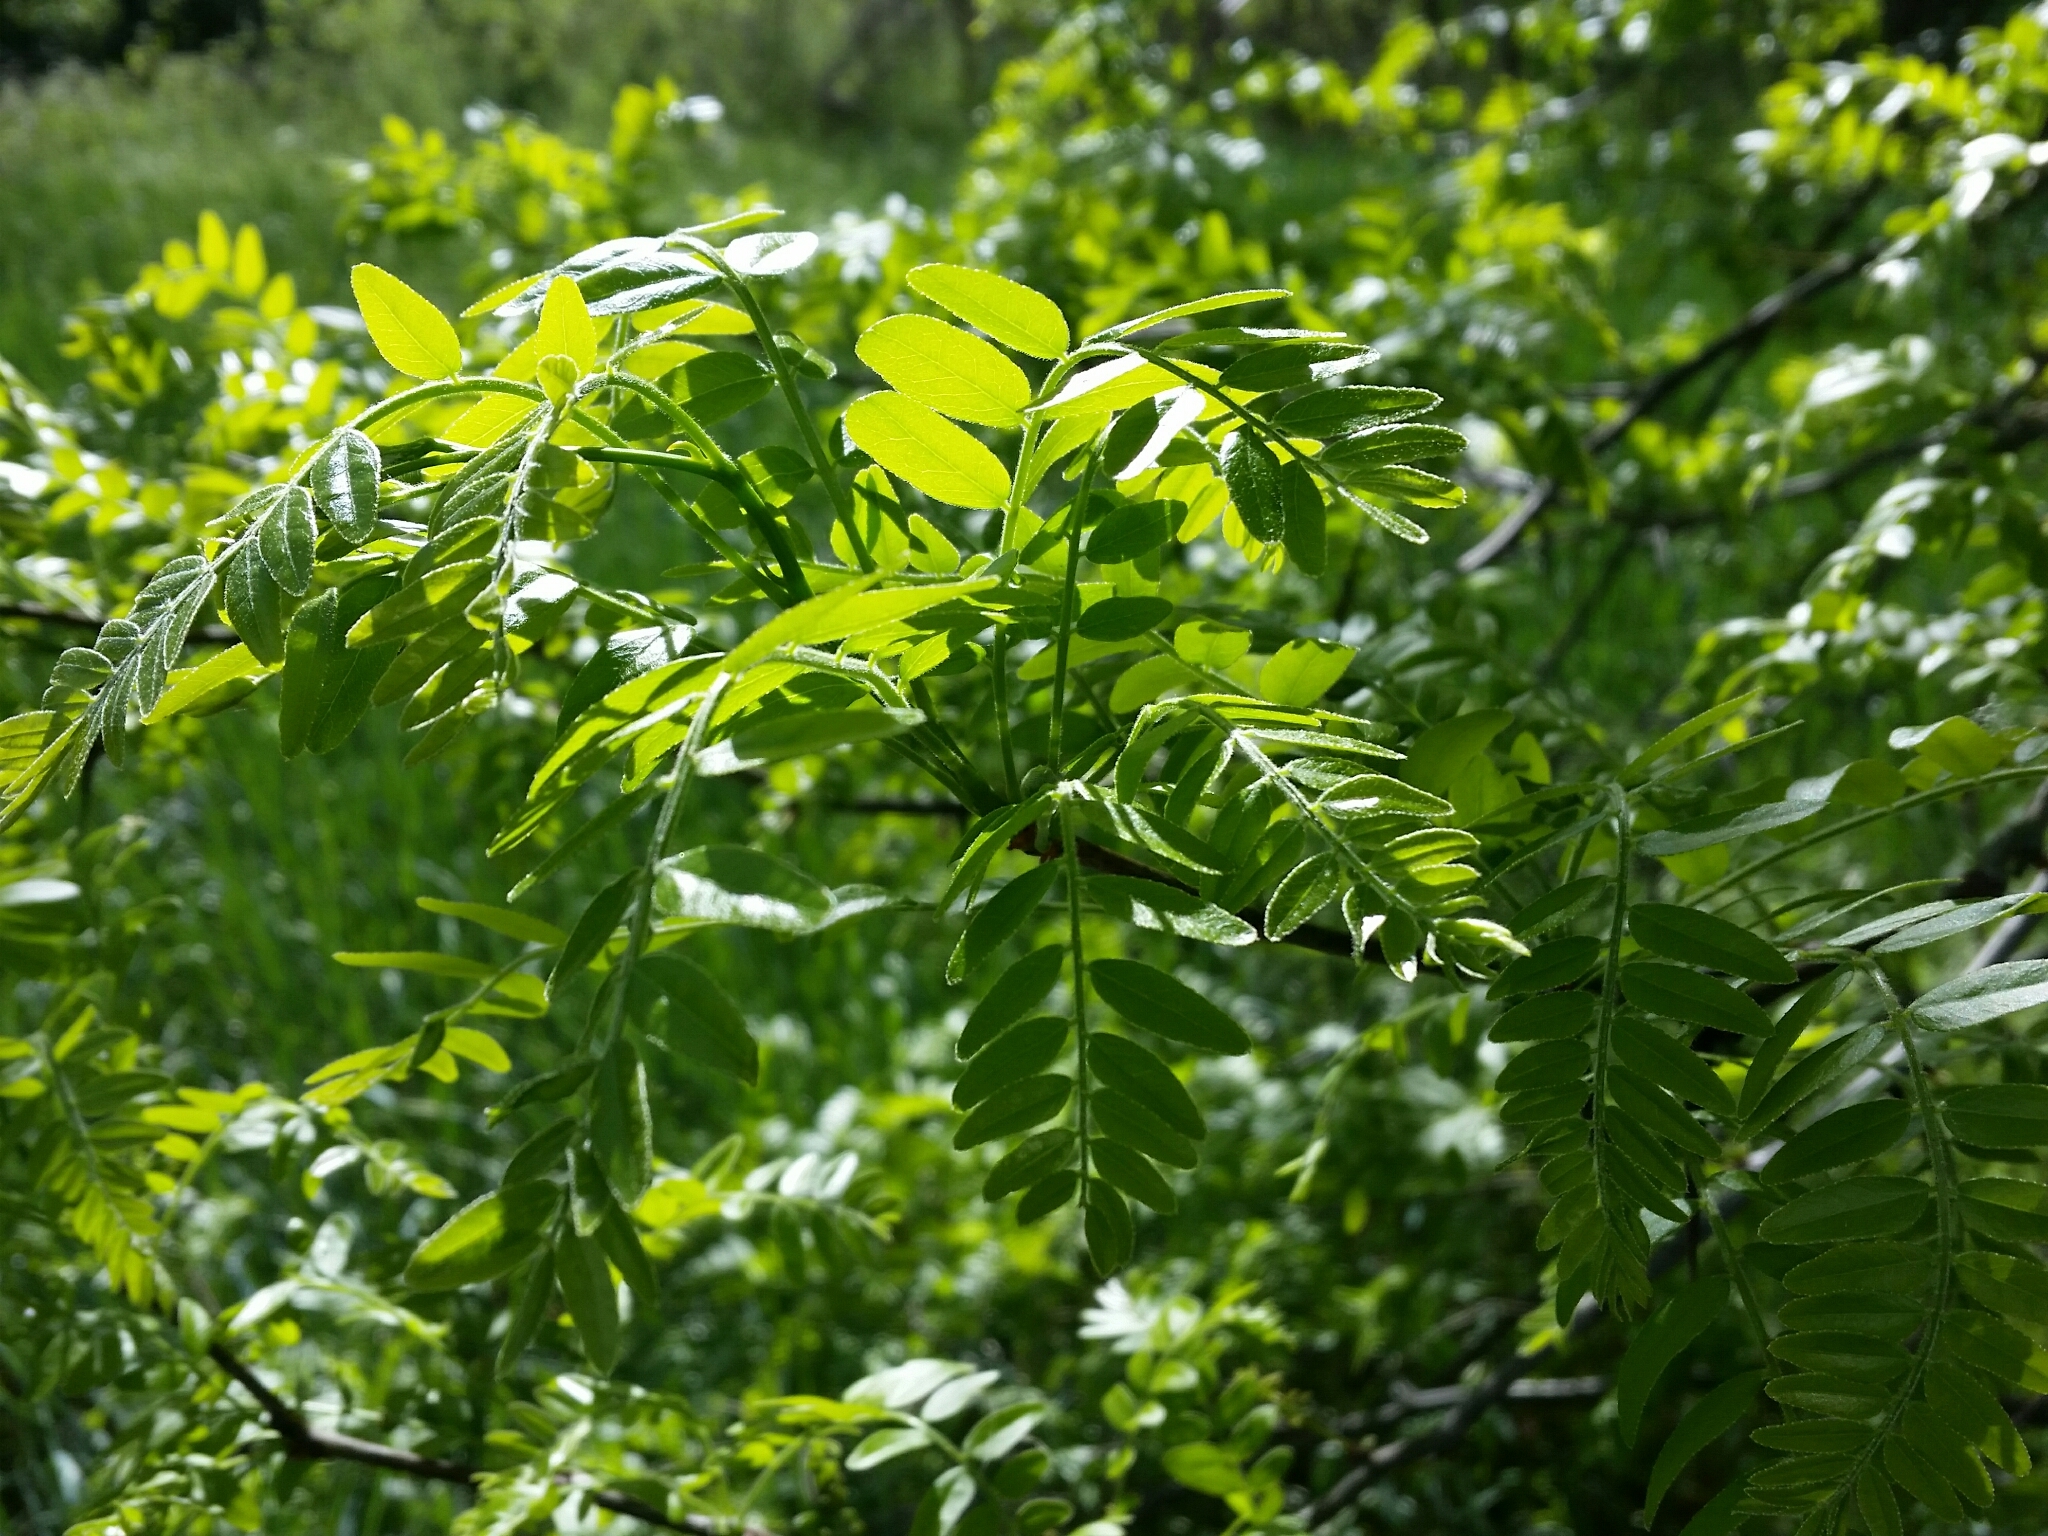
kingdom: Plantae
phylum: Tracheophyta
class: Magnoliopsida
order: Fabales
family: Fabaceae
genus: Gleditsia
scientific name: Gleditsia triacanthos
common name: Common honeylocust
